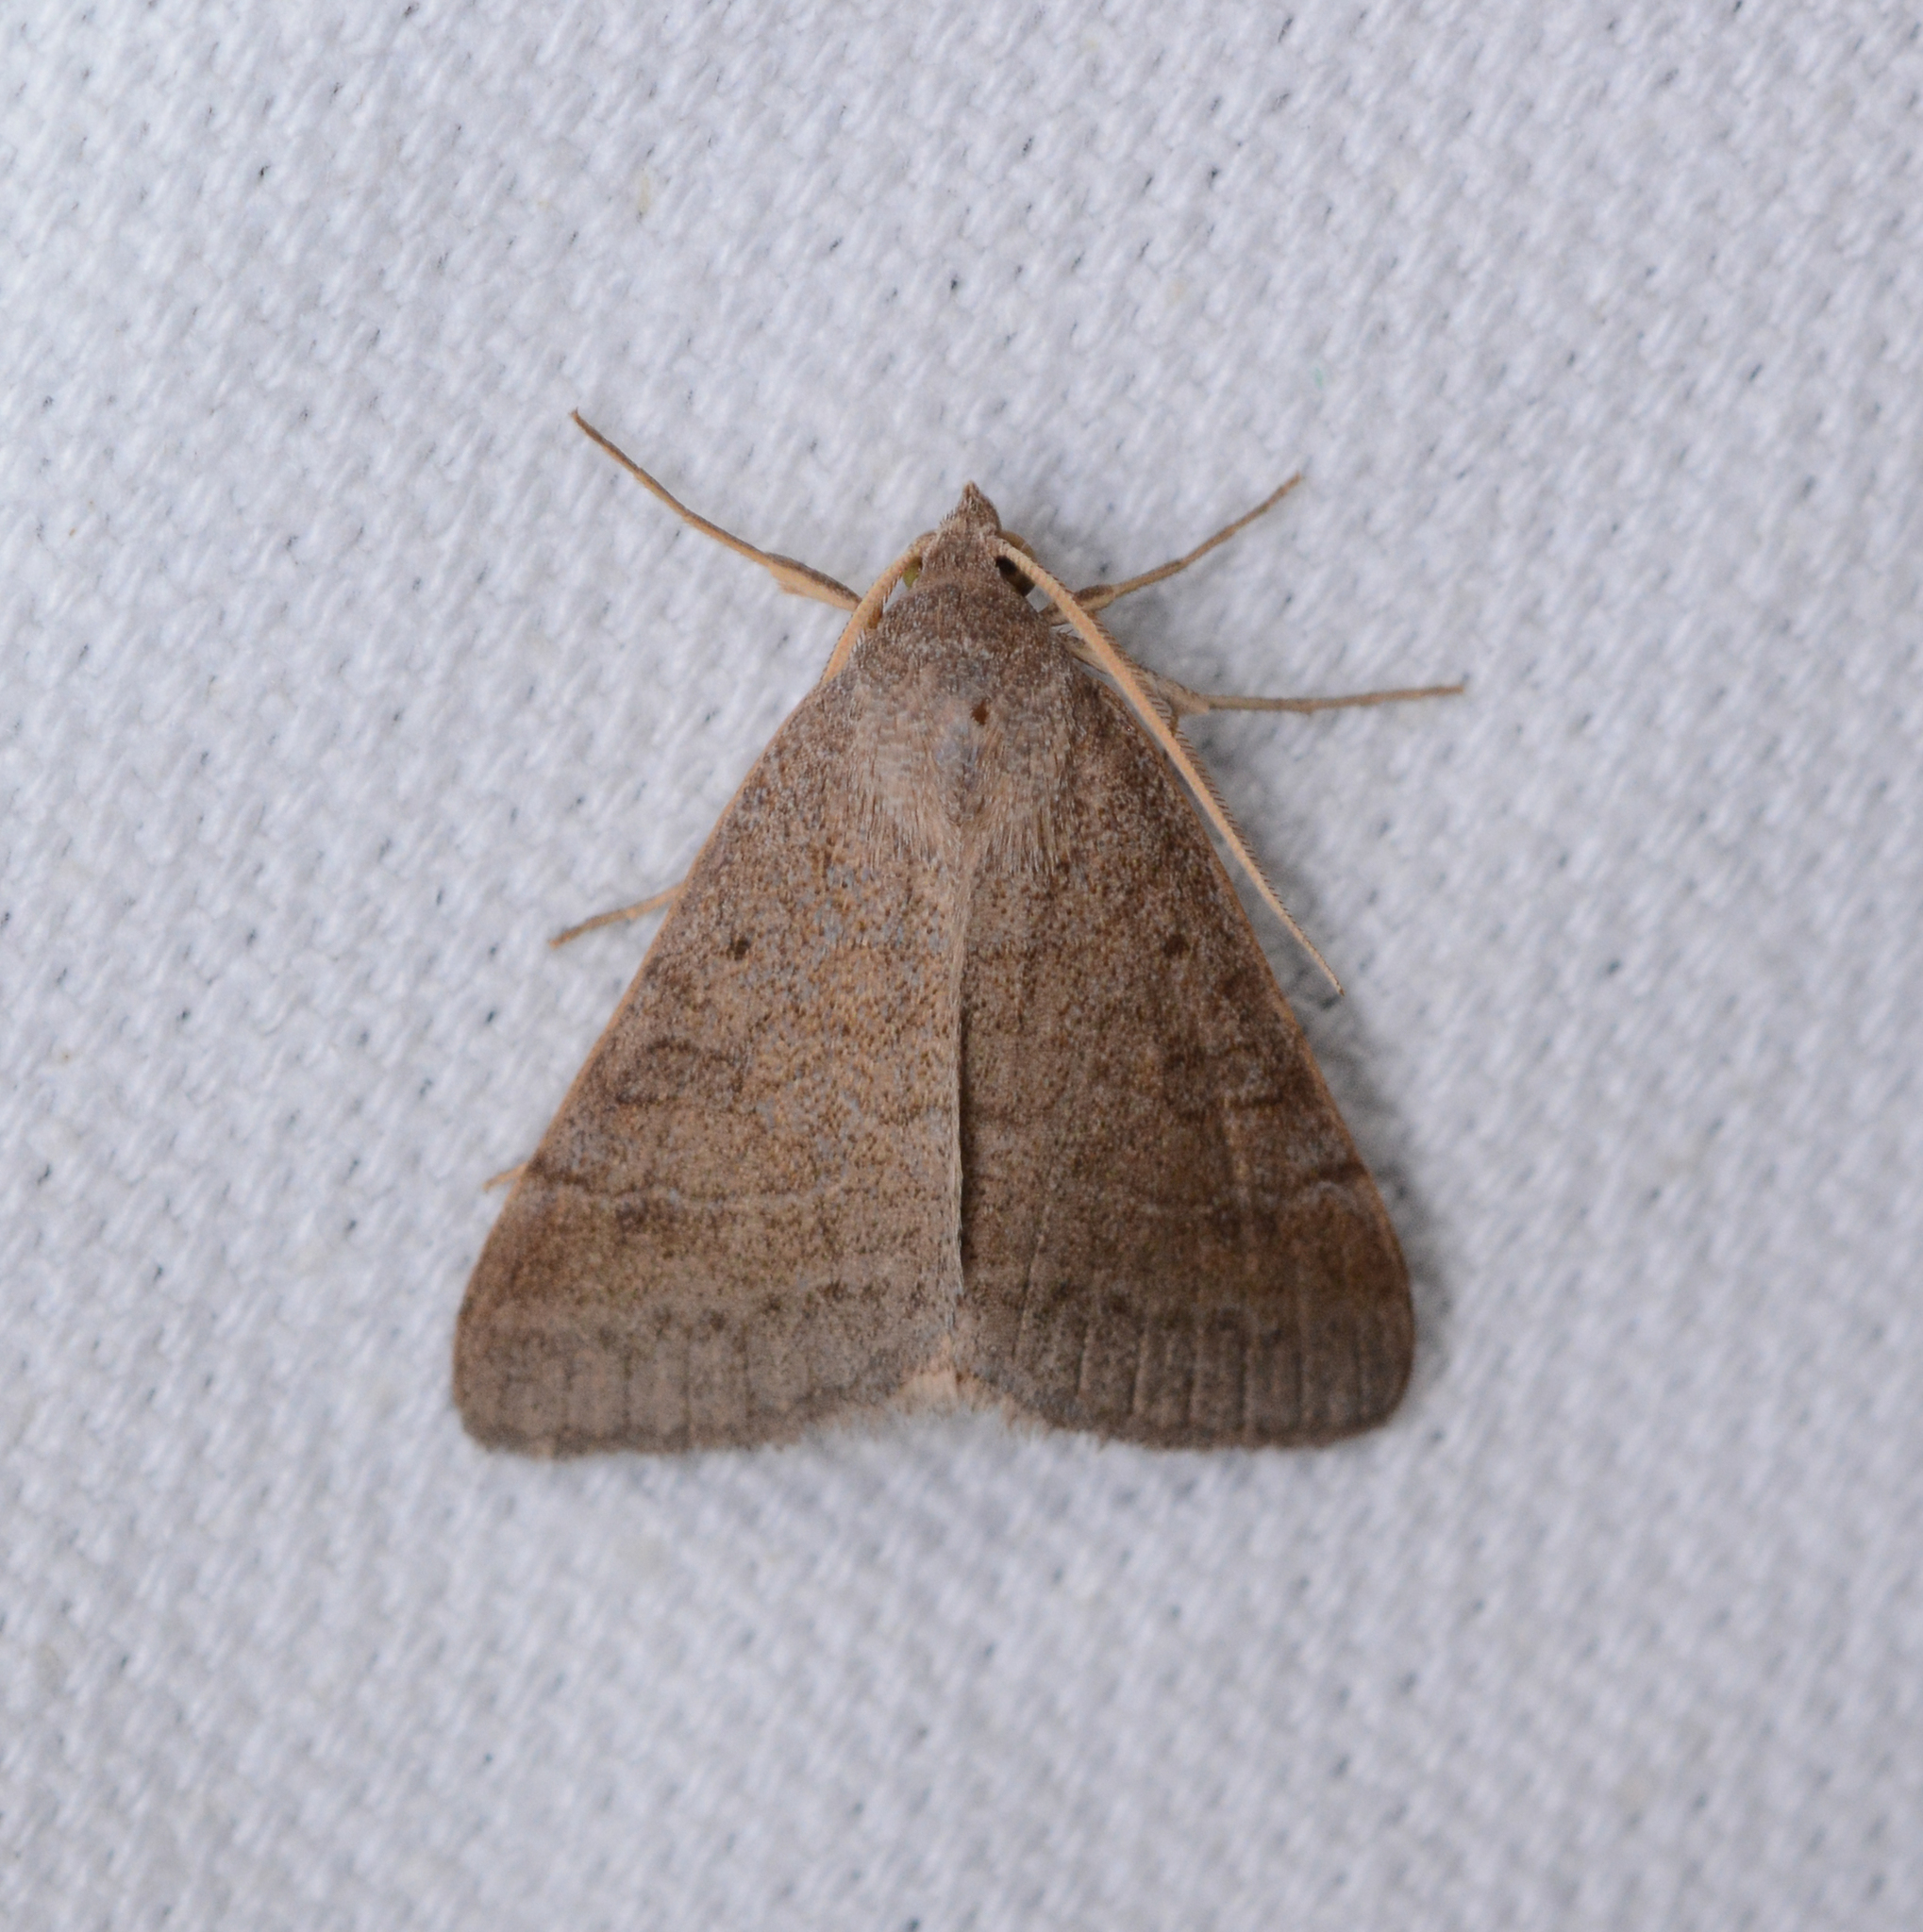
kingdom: Animalia
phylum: Arthropoda
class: Insecta
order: Lepidoptera
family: Erebidae
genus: Caenurgia
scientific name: Caenurgia chloropha
